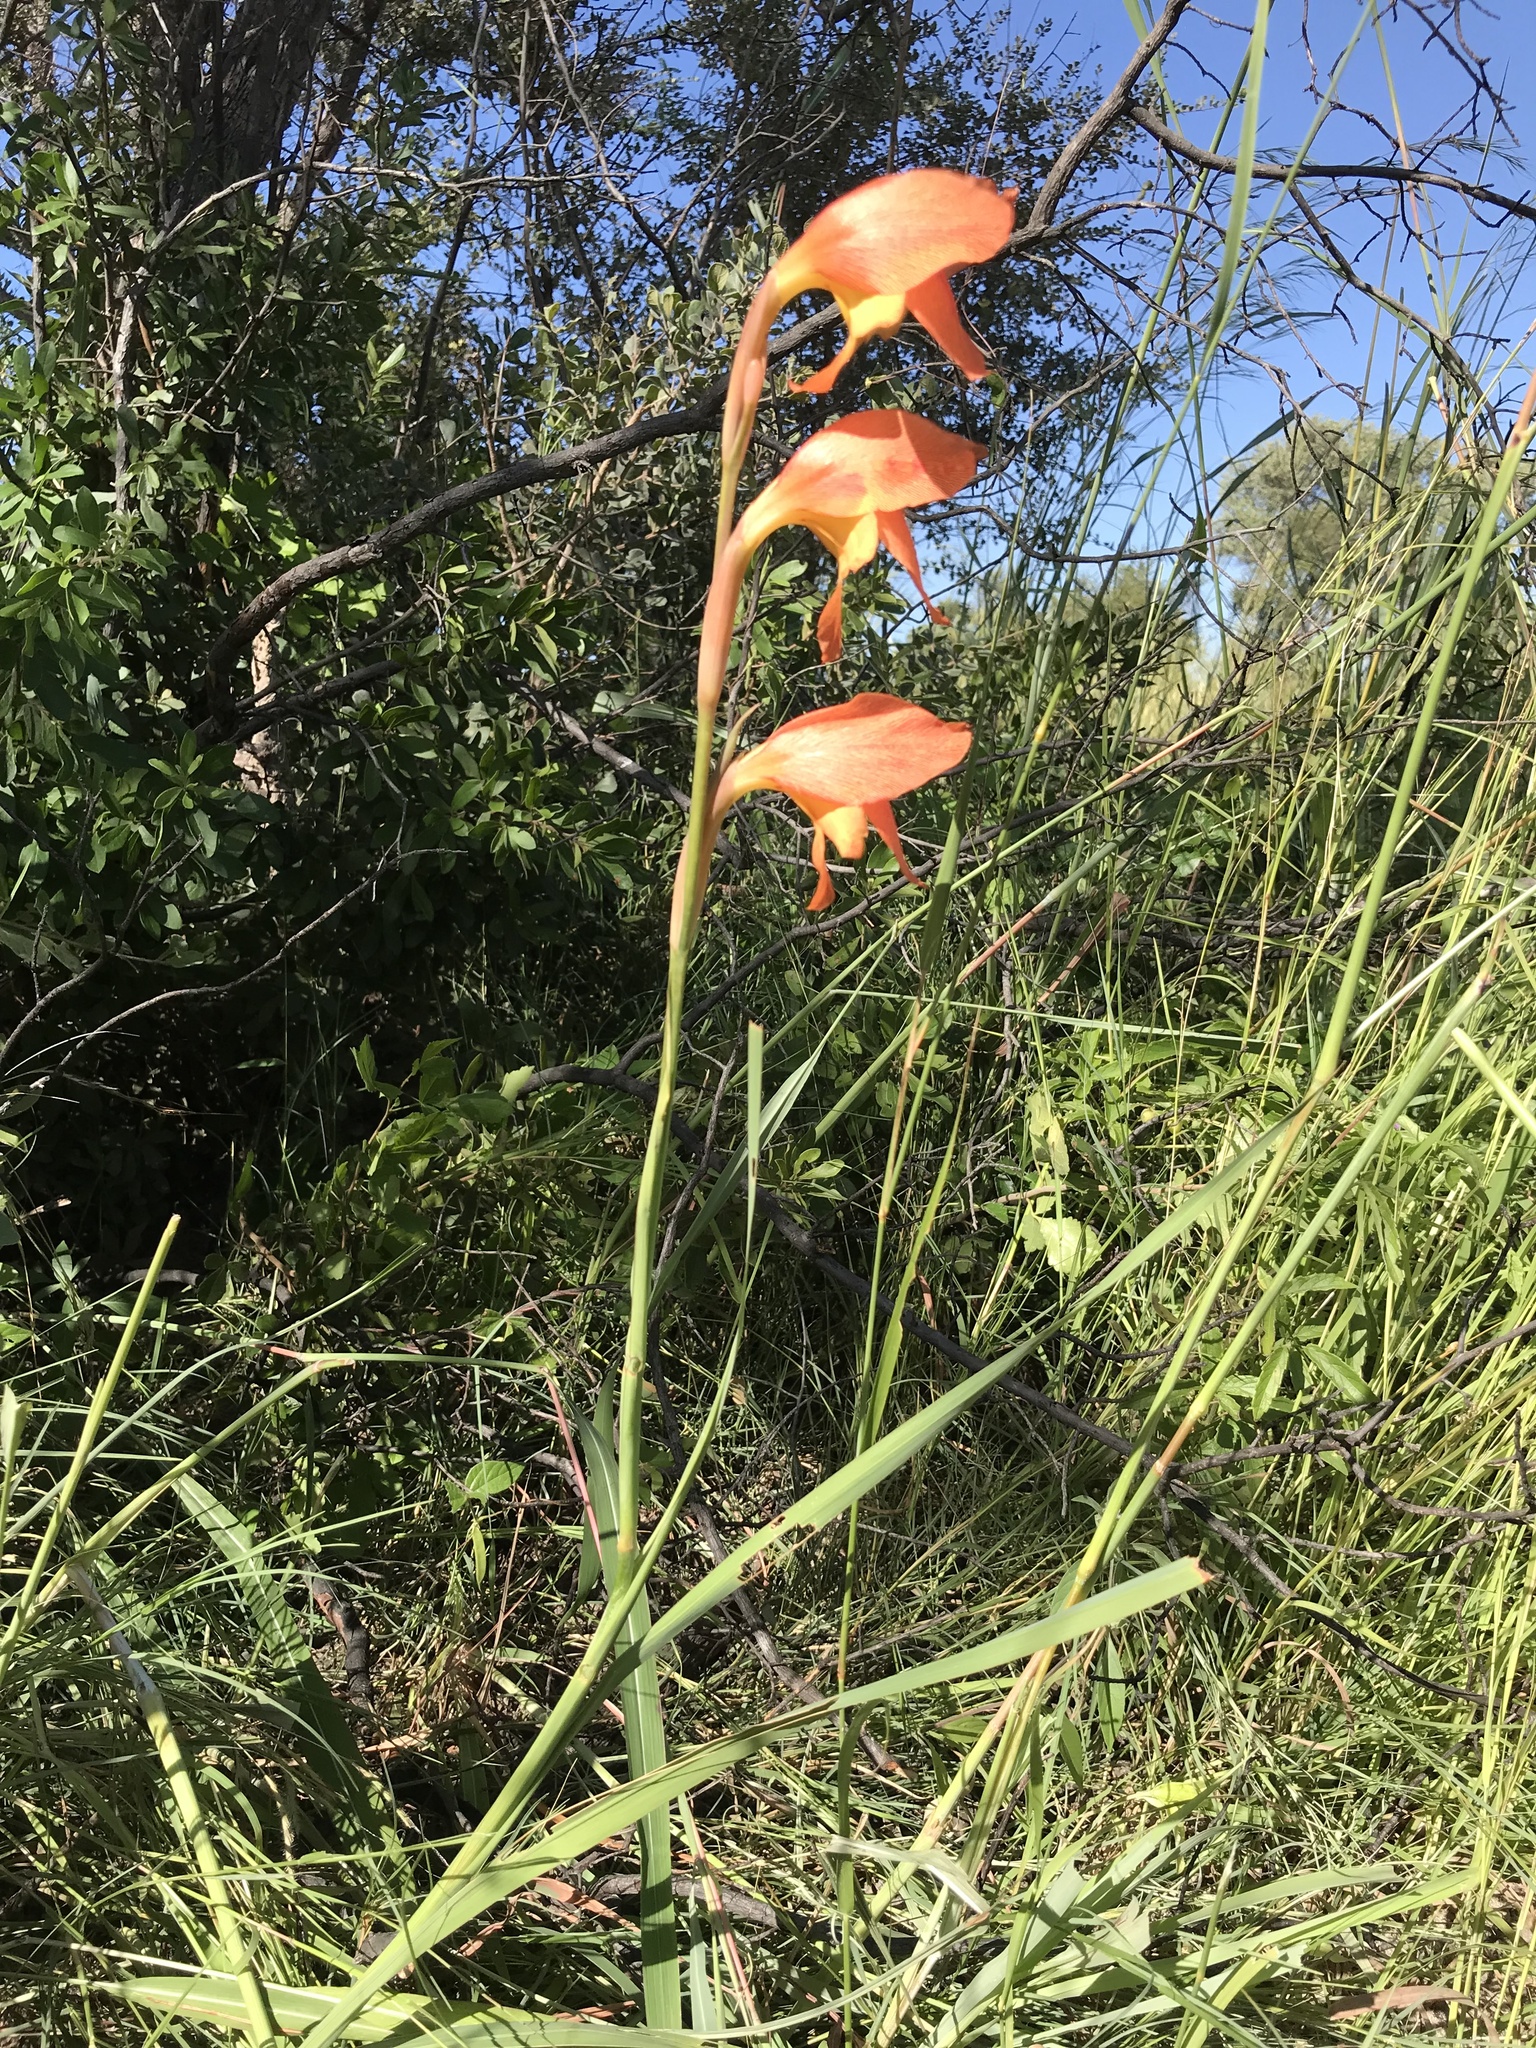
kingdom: Plantae
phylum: Tracheophyta
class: Liliopsida
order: Asparagales
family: Iridaceae
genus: Gladiolus
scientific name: Gladiolus dalenii
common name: Cornflag
